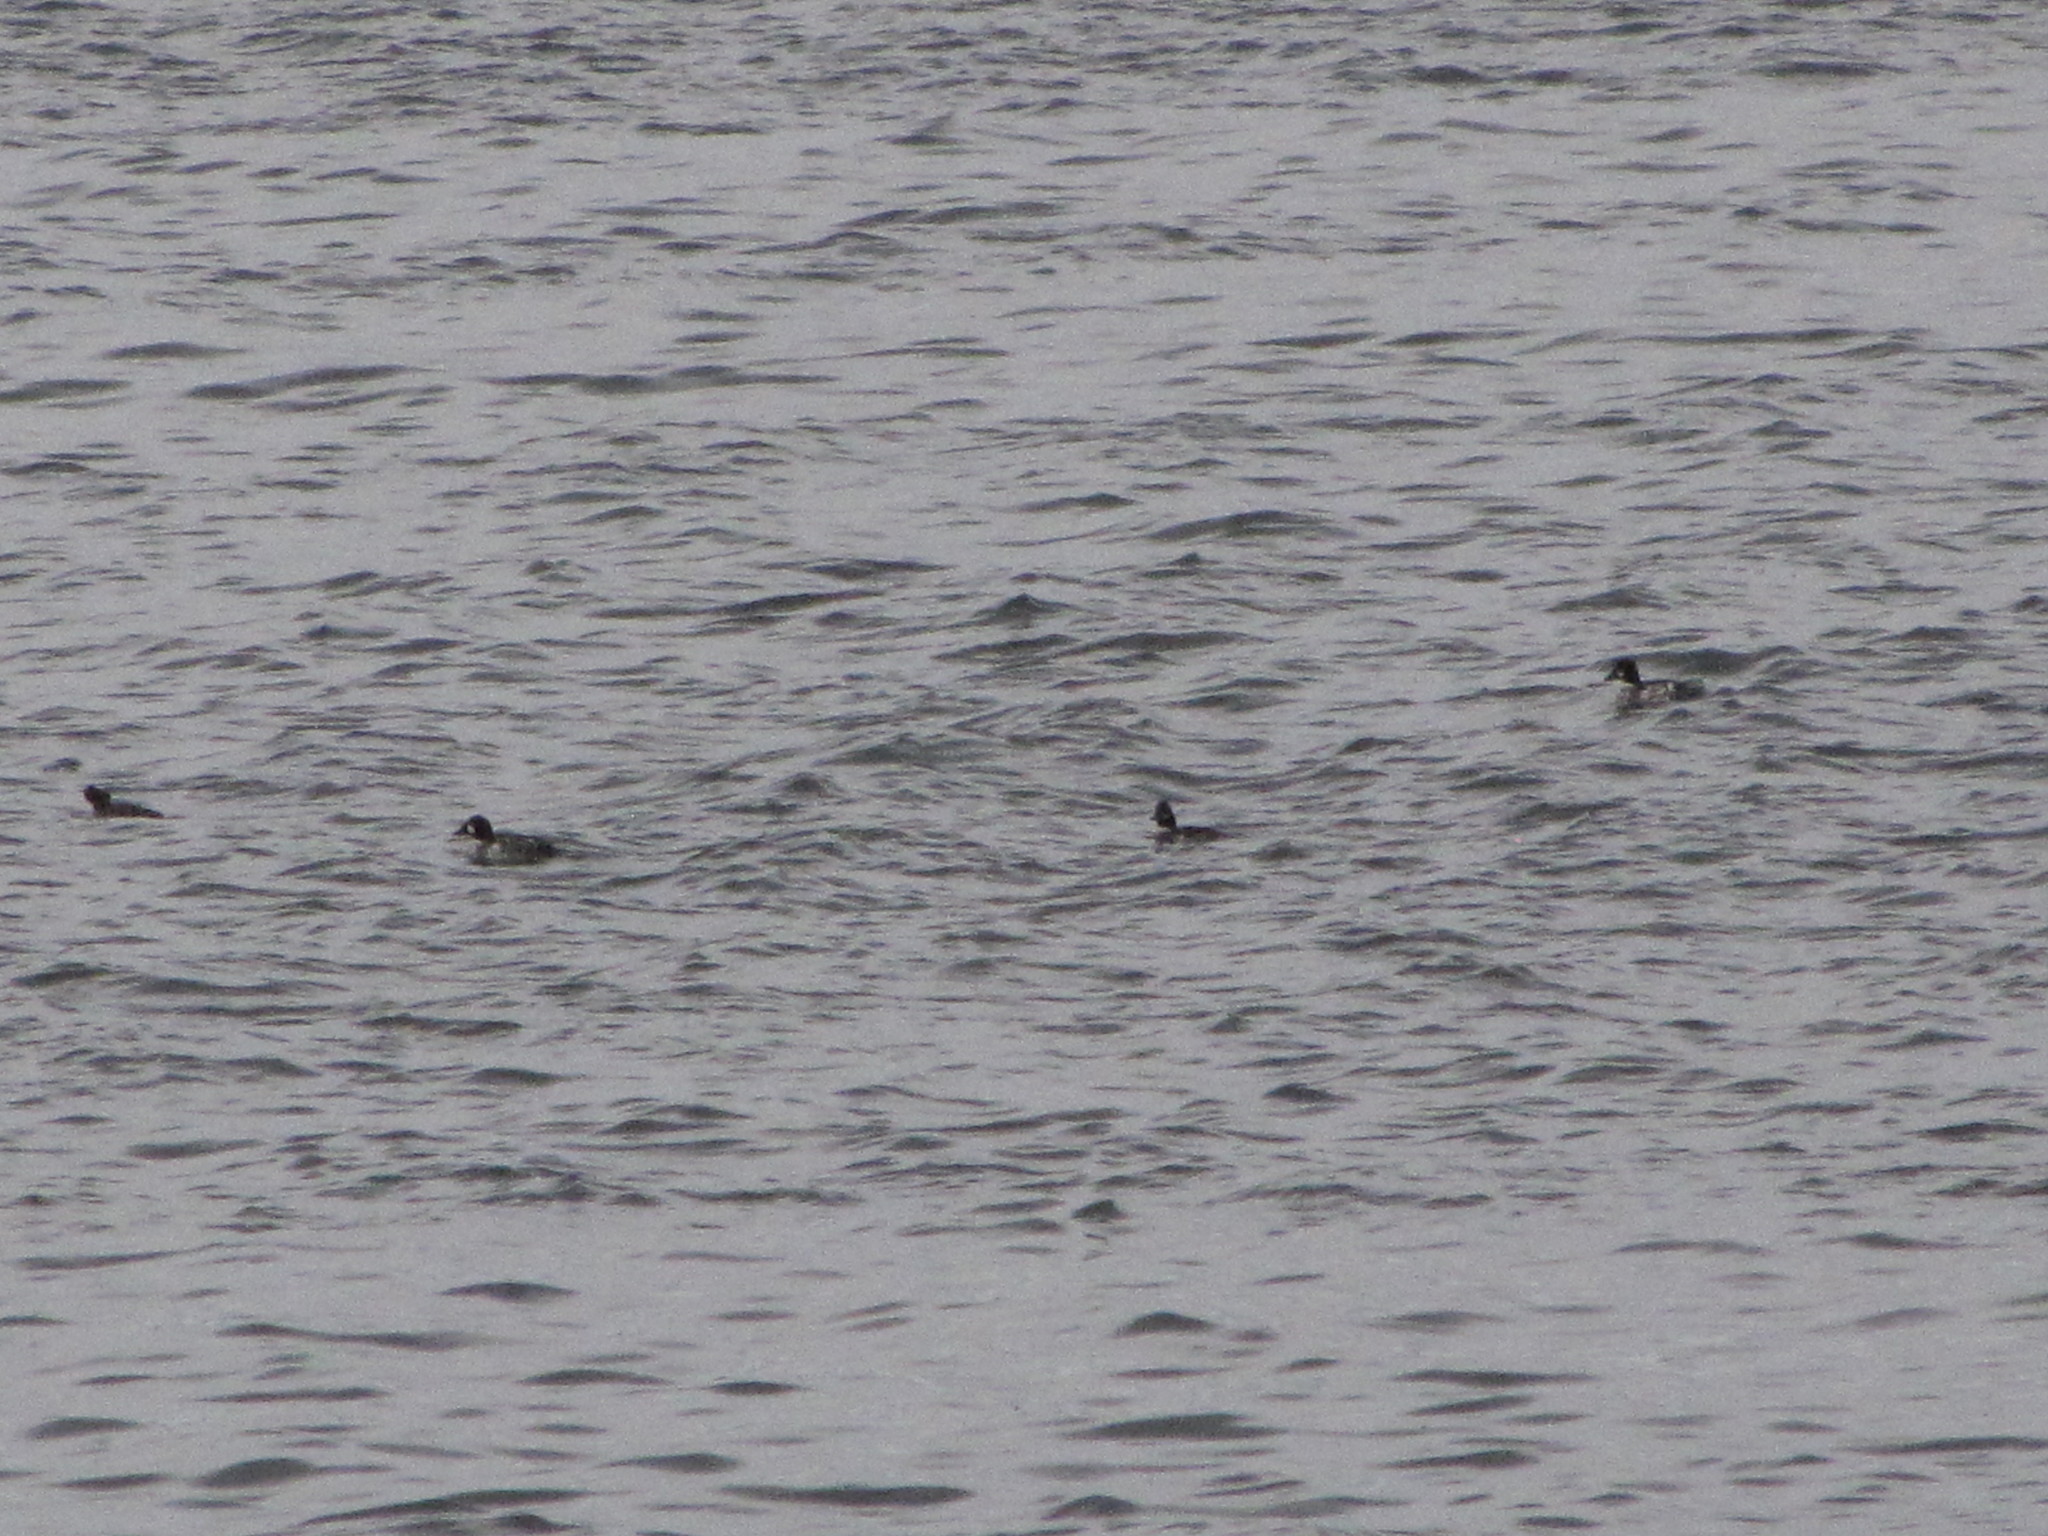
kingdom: Animalia
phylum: Chordata
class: Aves
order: Anseriformes
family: Anatidae
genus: Bucephala
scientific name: Bucephala clangula
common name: Common goldeneye
